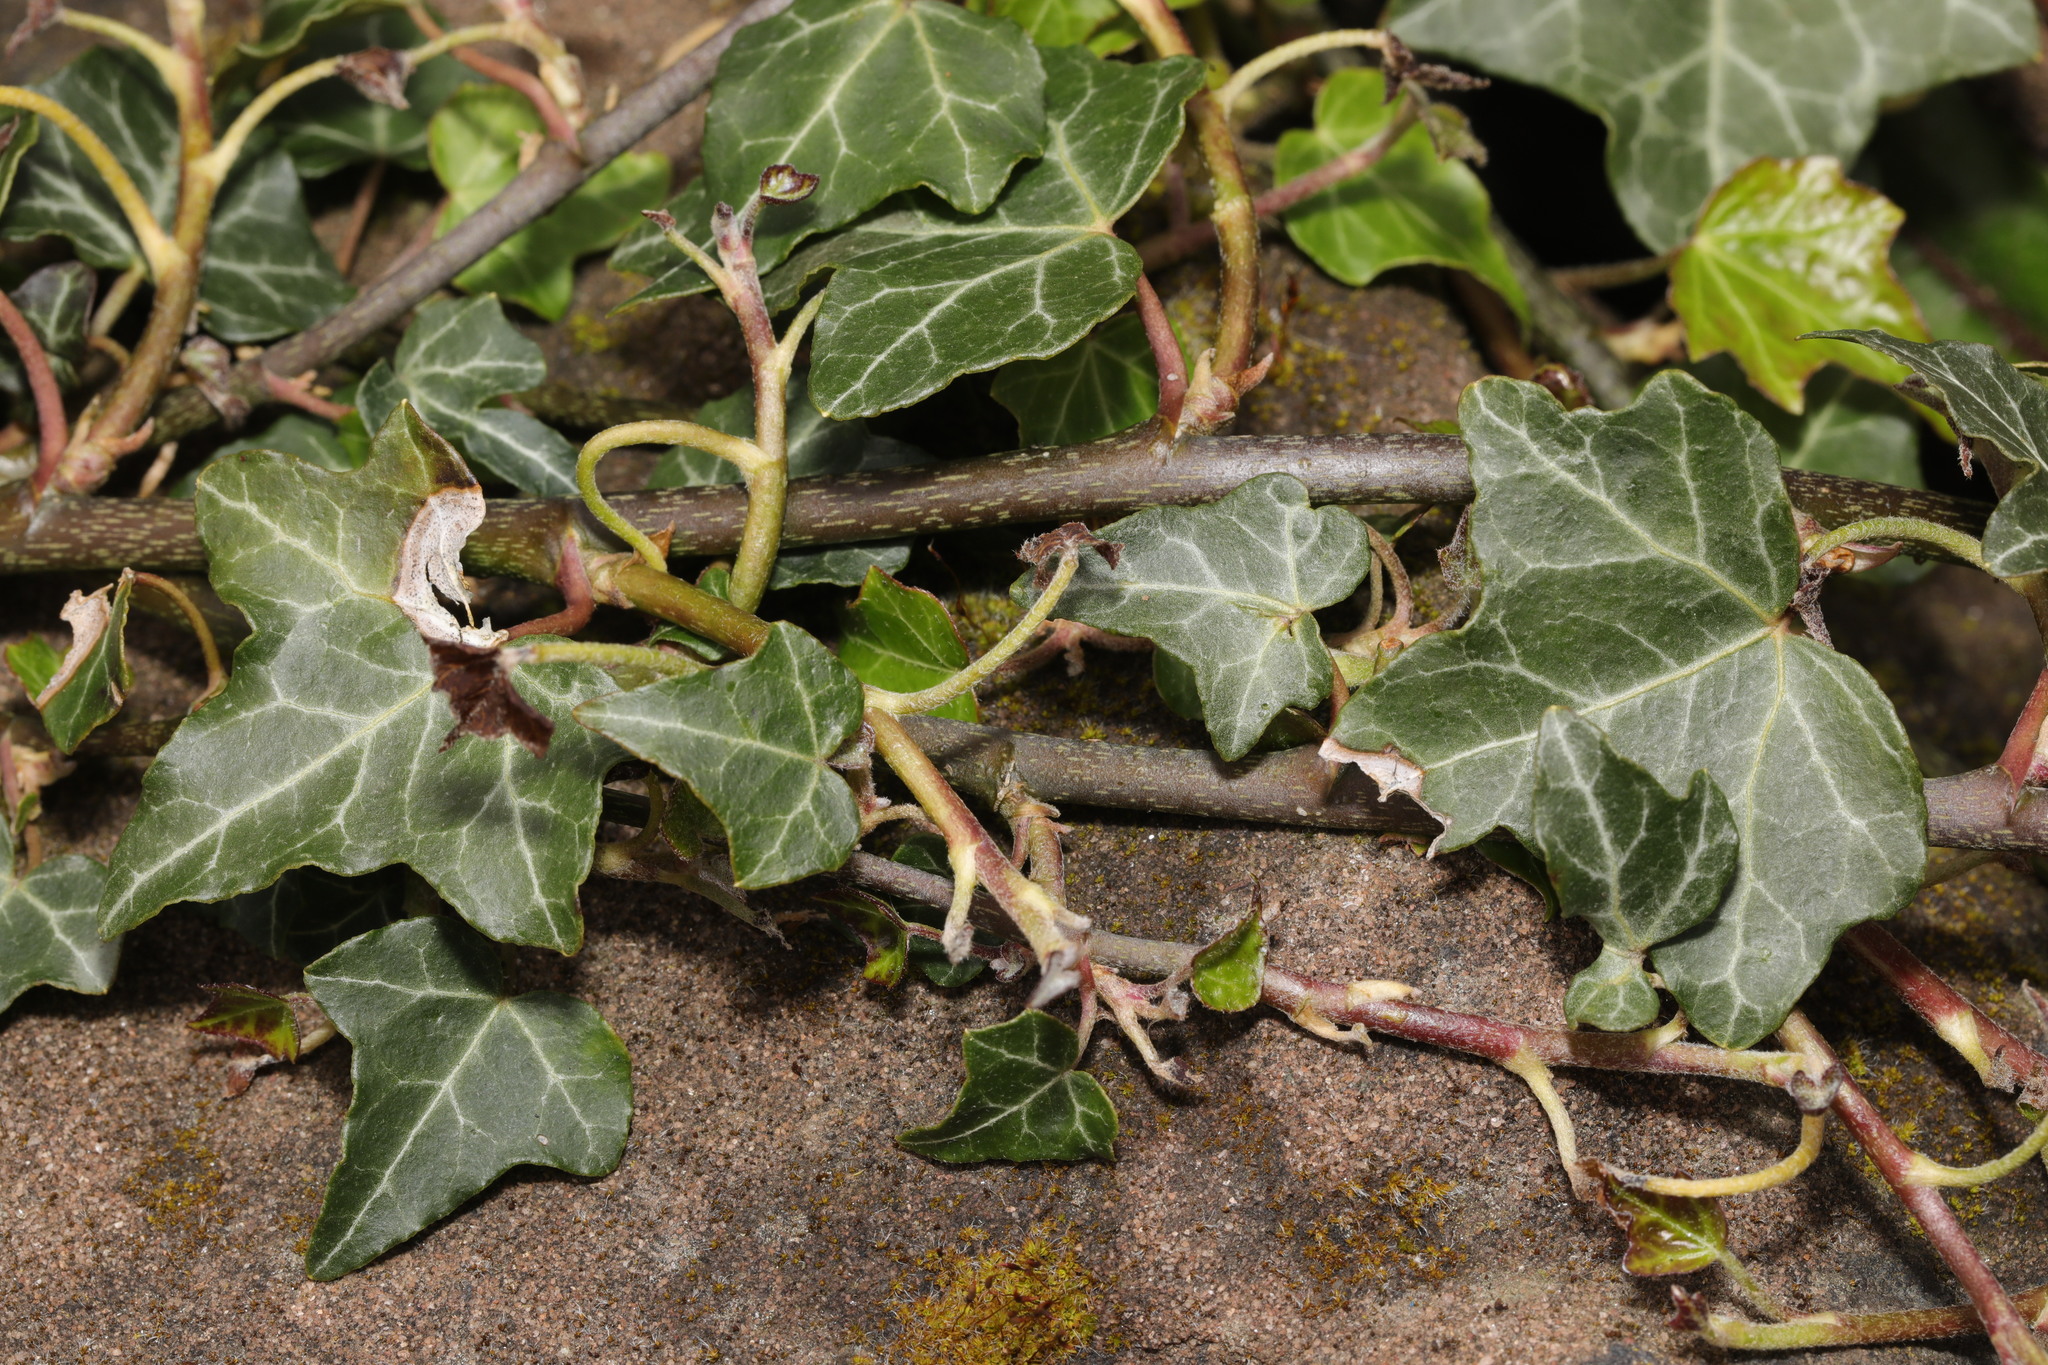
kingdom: Plantae
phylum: Tracheophyta
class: Magnoliopsida
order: Apiales
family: Araliaceae
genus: Hedera
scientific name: Hedera helix
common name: Ivy
